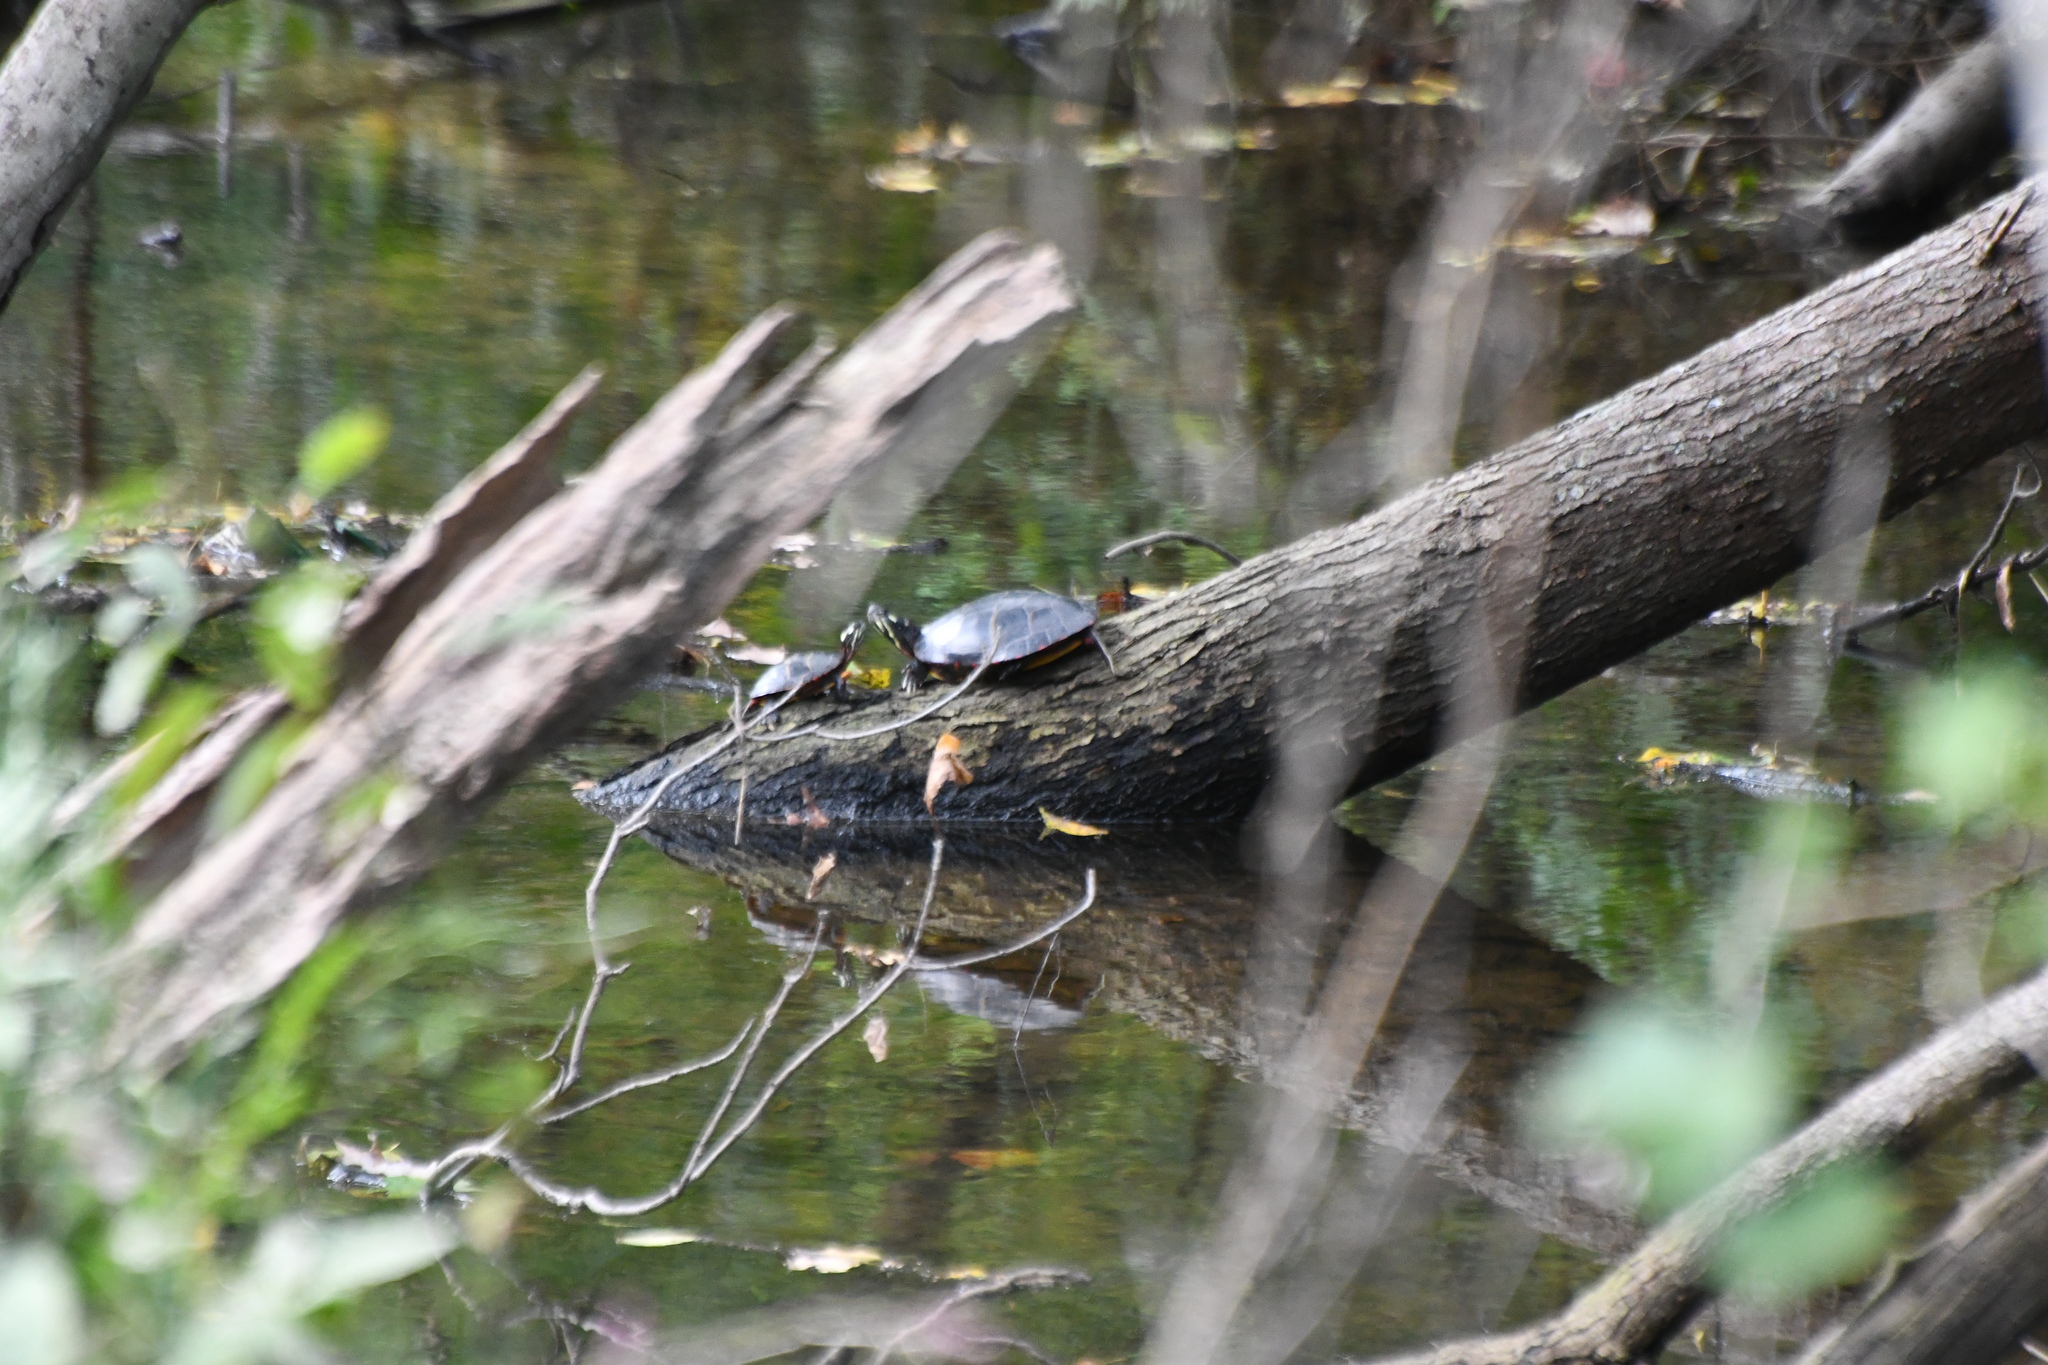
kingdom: Animalia
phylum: Chordata
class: Testudines
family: Emydidae
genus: Chrysemys
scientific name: Chrysemys picta
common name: Painted turtle
